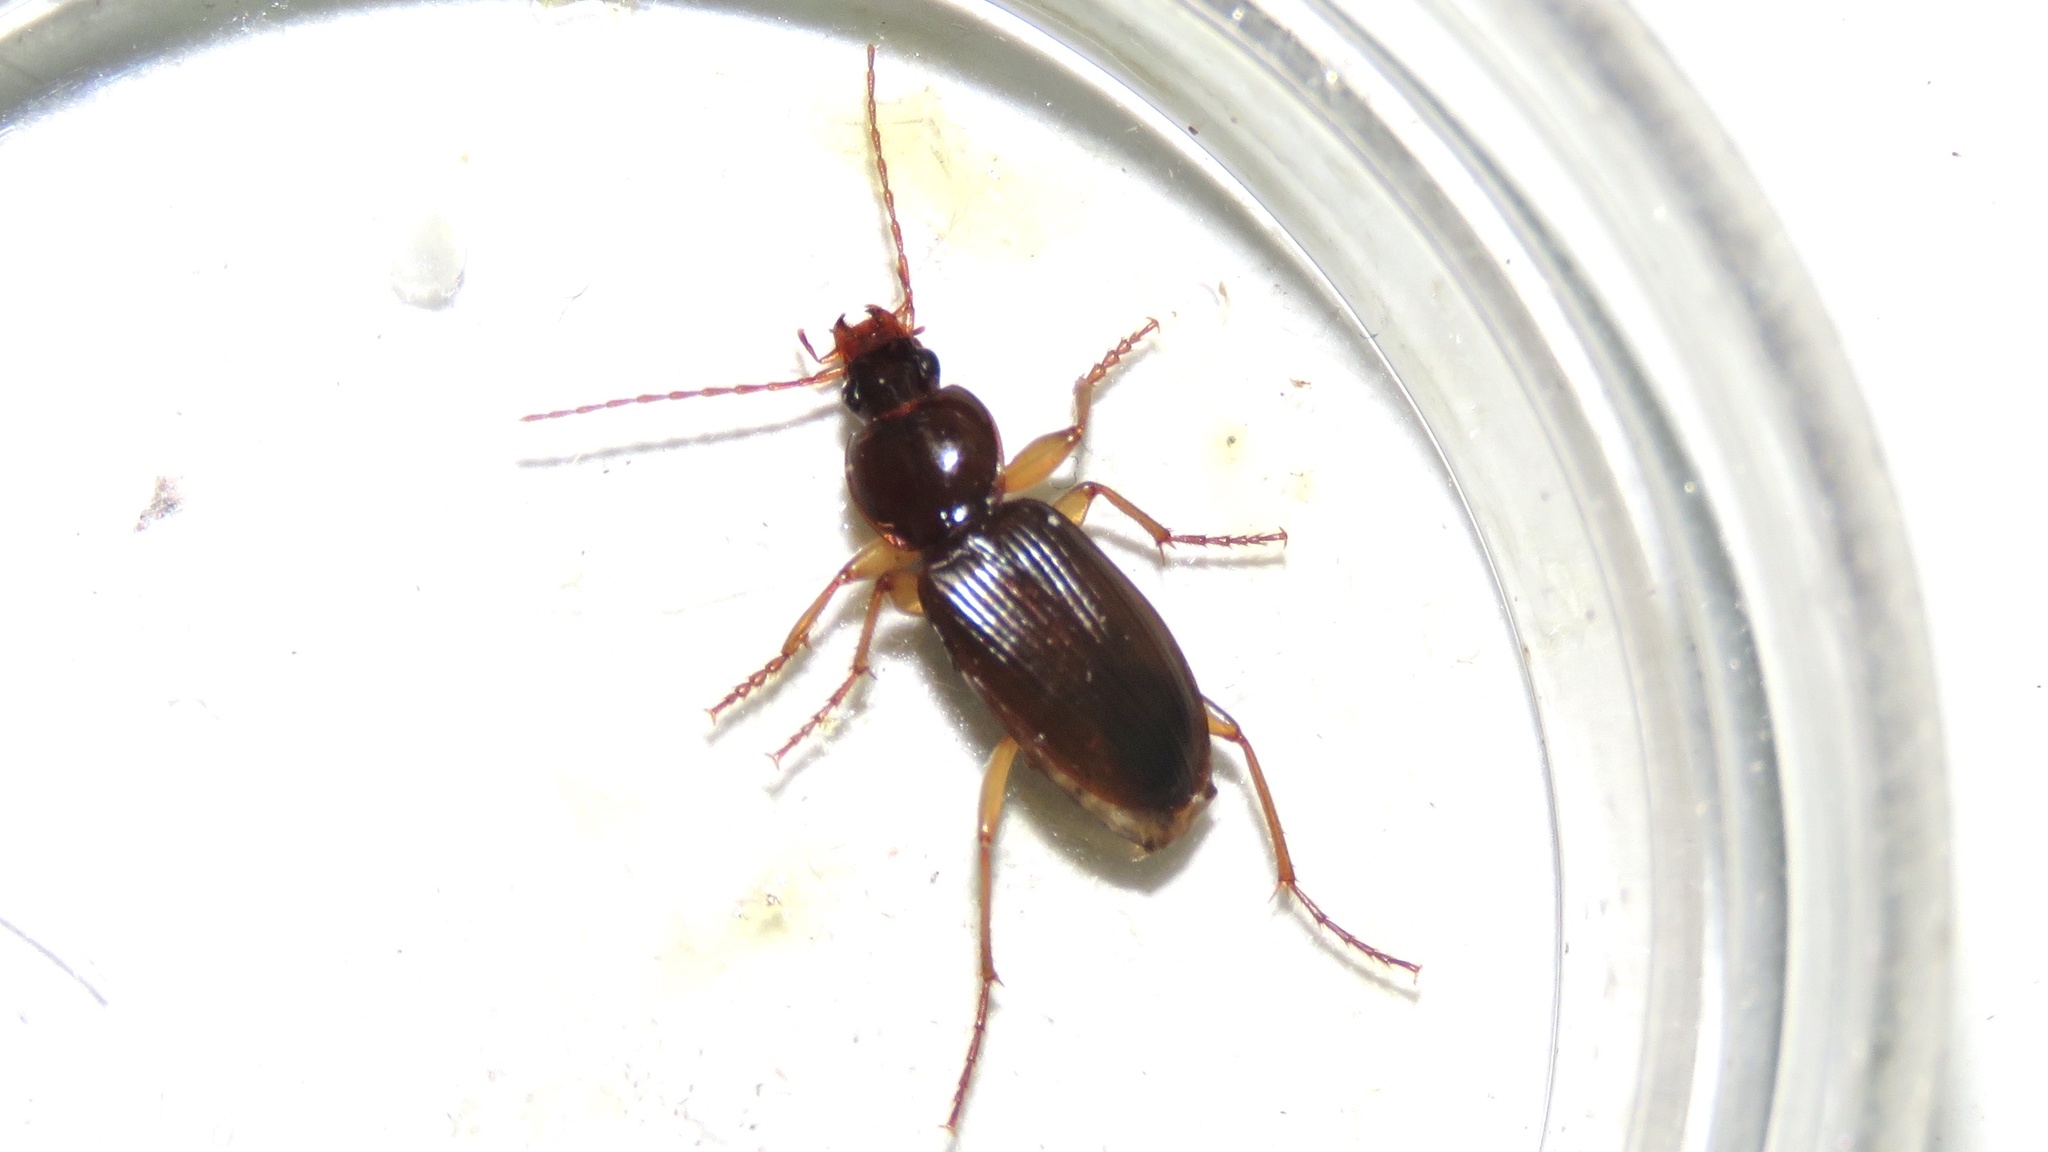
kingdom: Animalia
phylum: Arthropoda
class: Insecta
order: Coleoptera
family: Carabidae
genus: Synuchus
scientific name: Synuchus impunctatus
